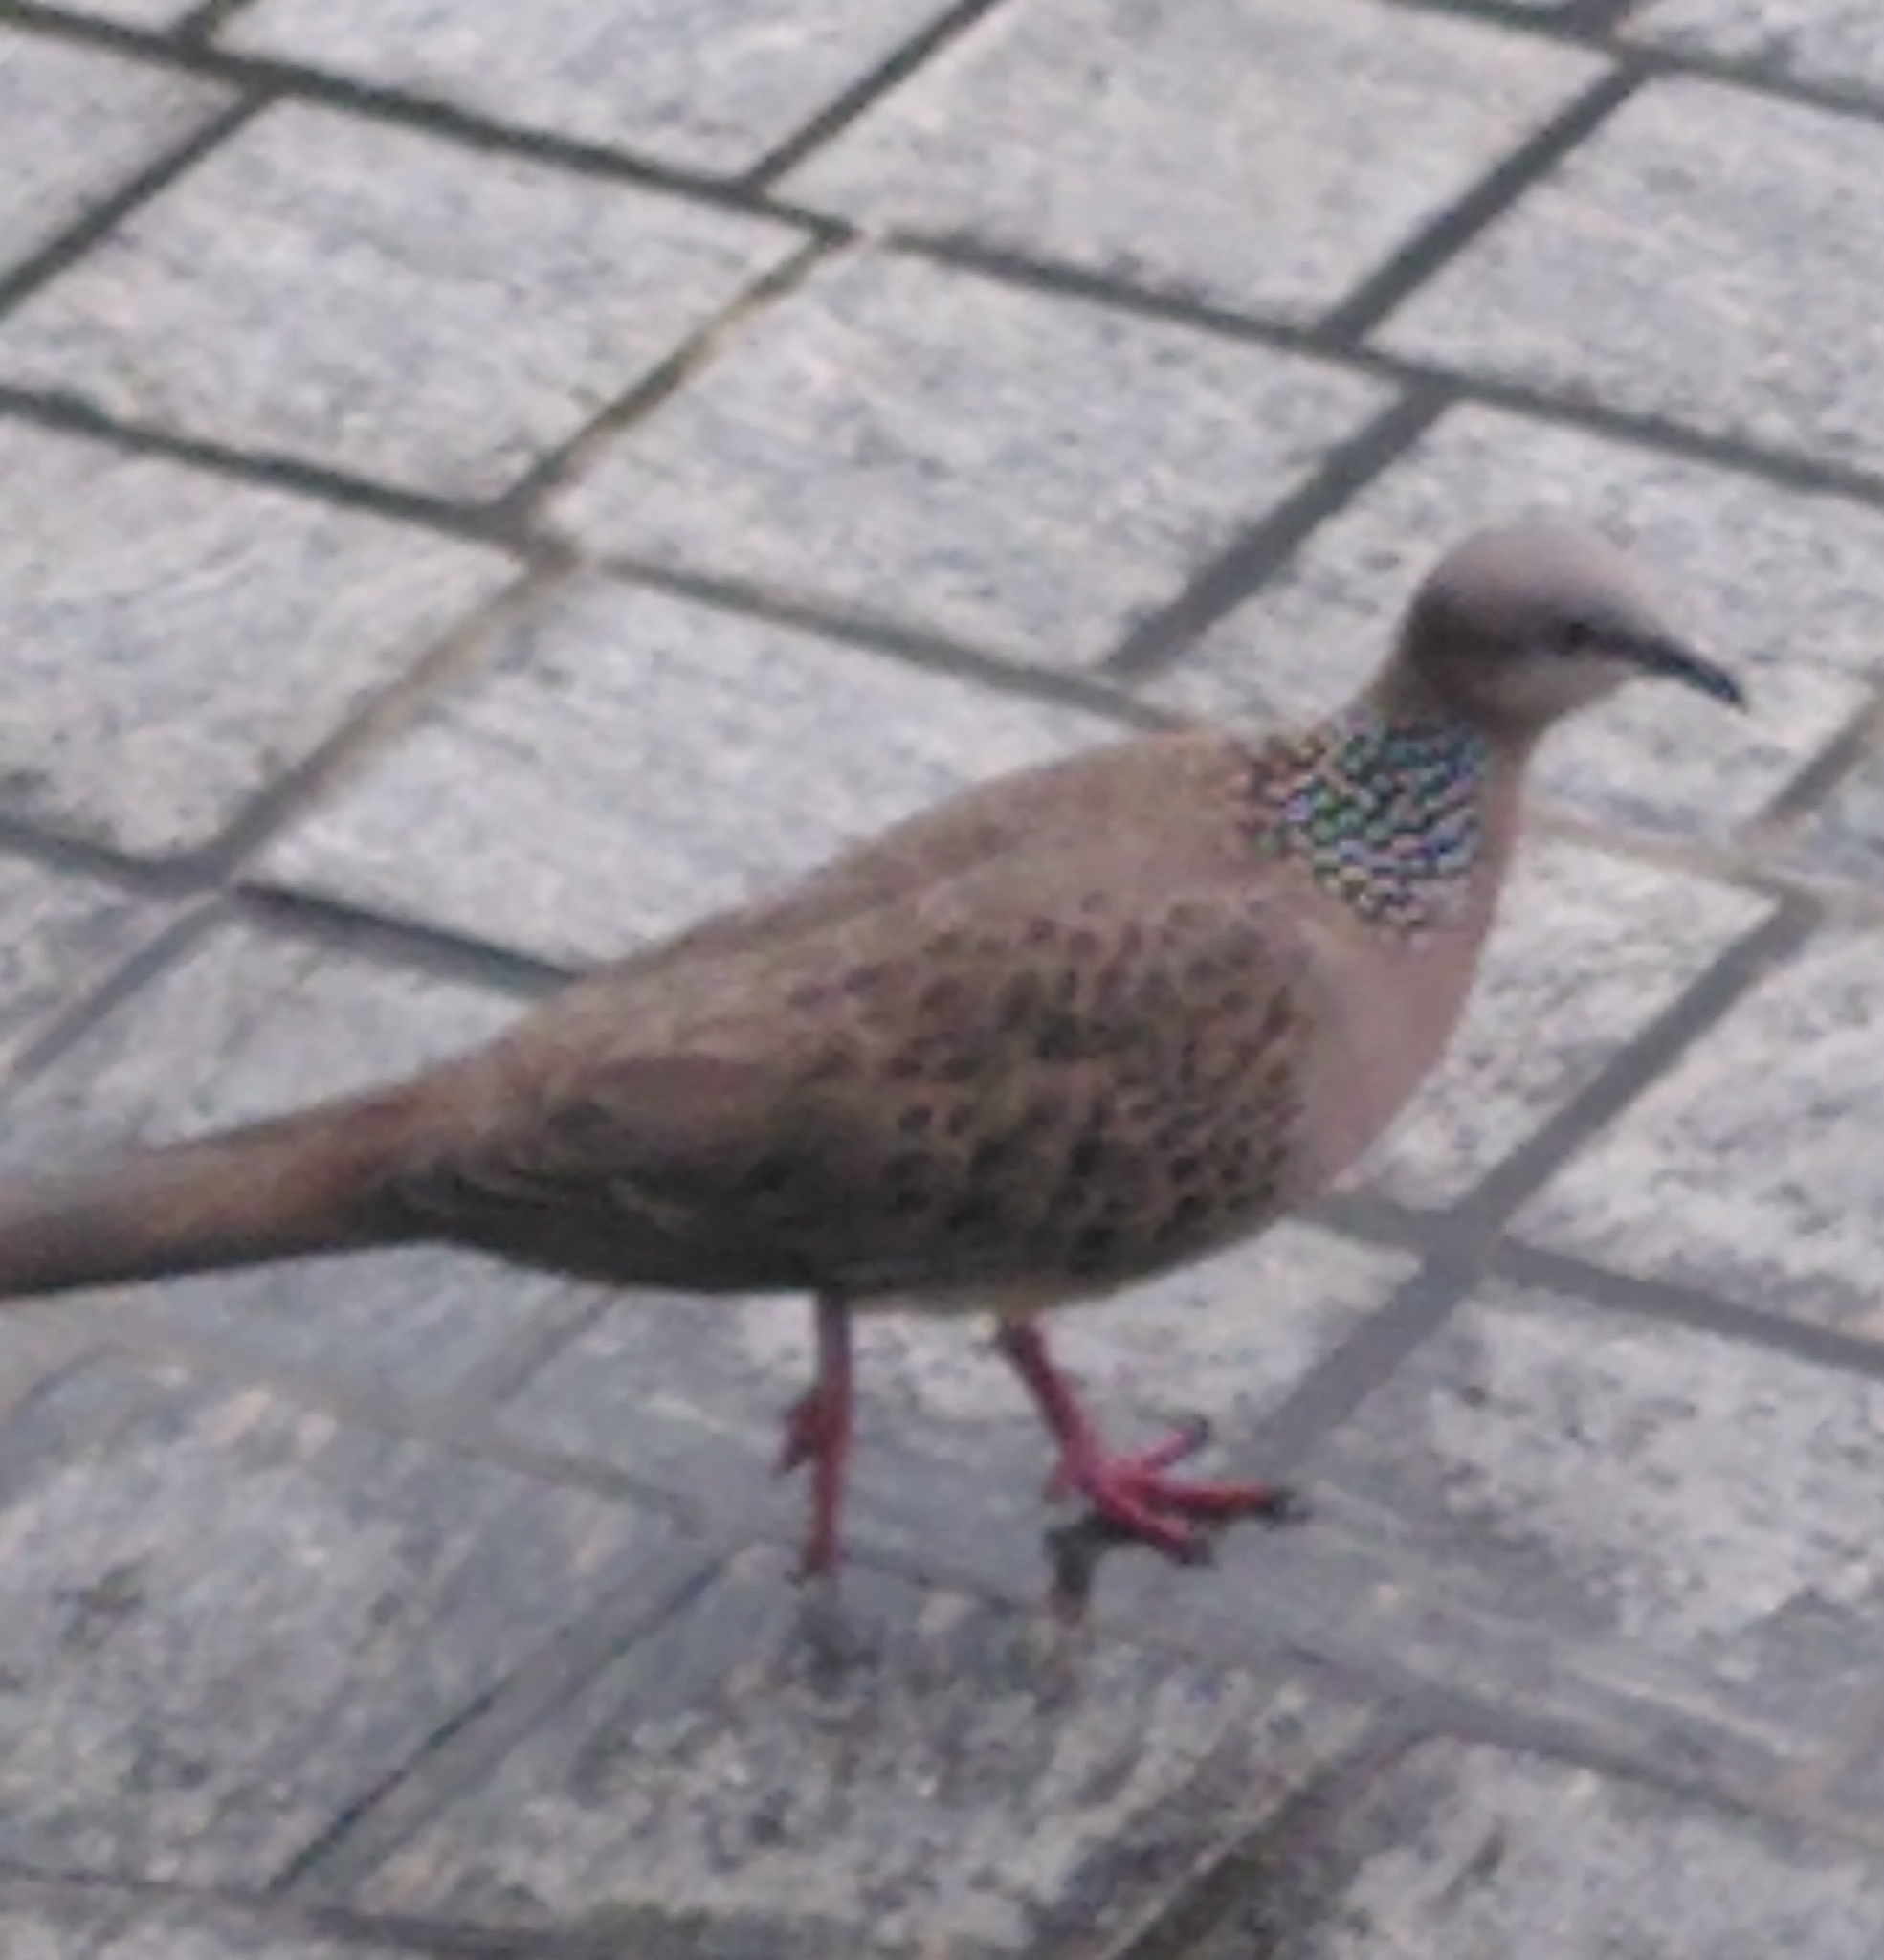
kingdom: Animalia
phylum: Chordata
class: Aves
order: Columbiformes
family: Columbidae
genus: Spilopelia
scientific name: Spilopelia chinensis
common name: Spotted dove
